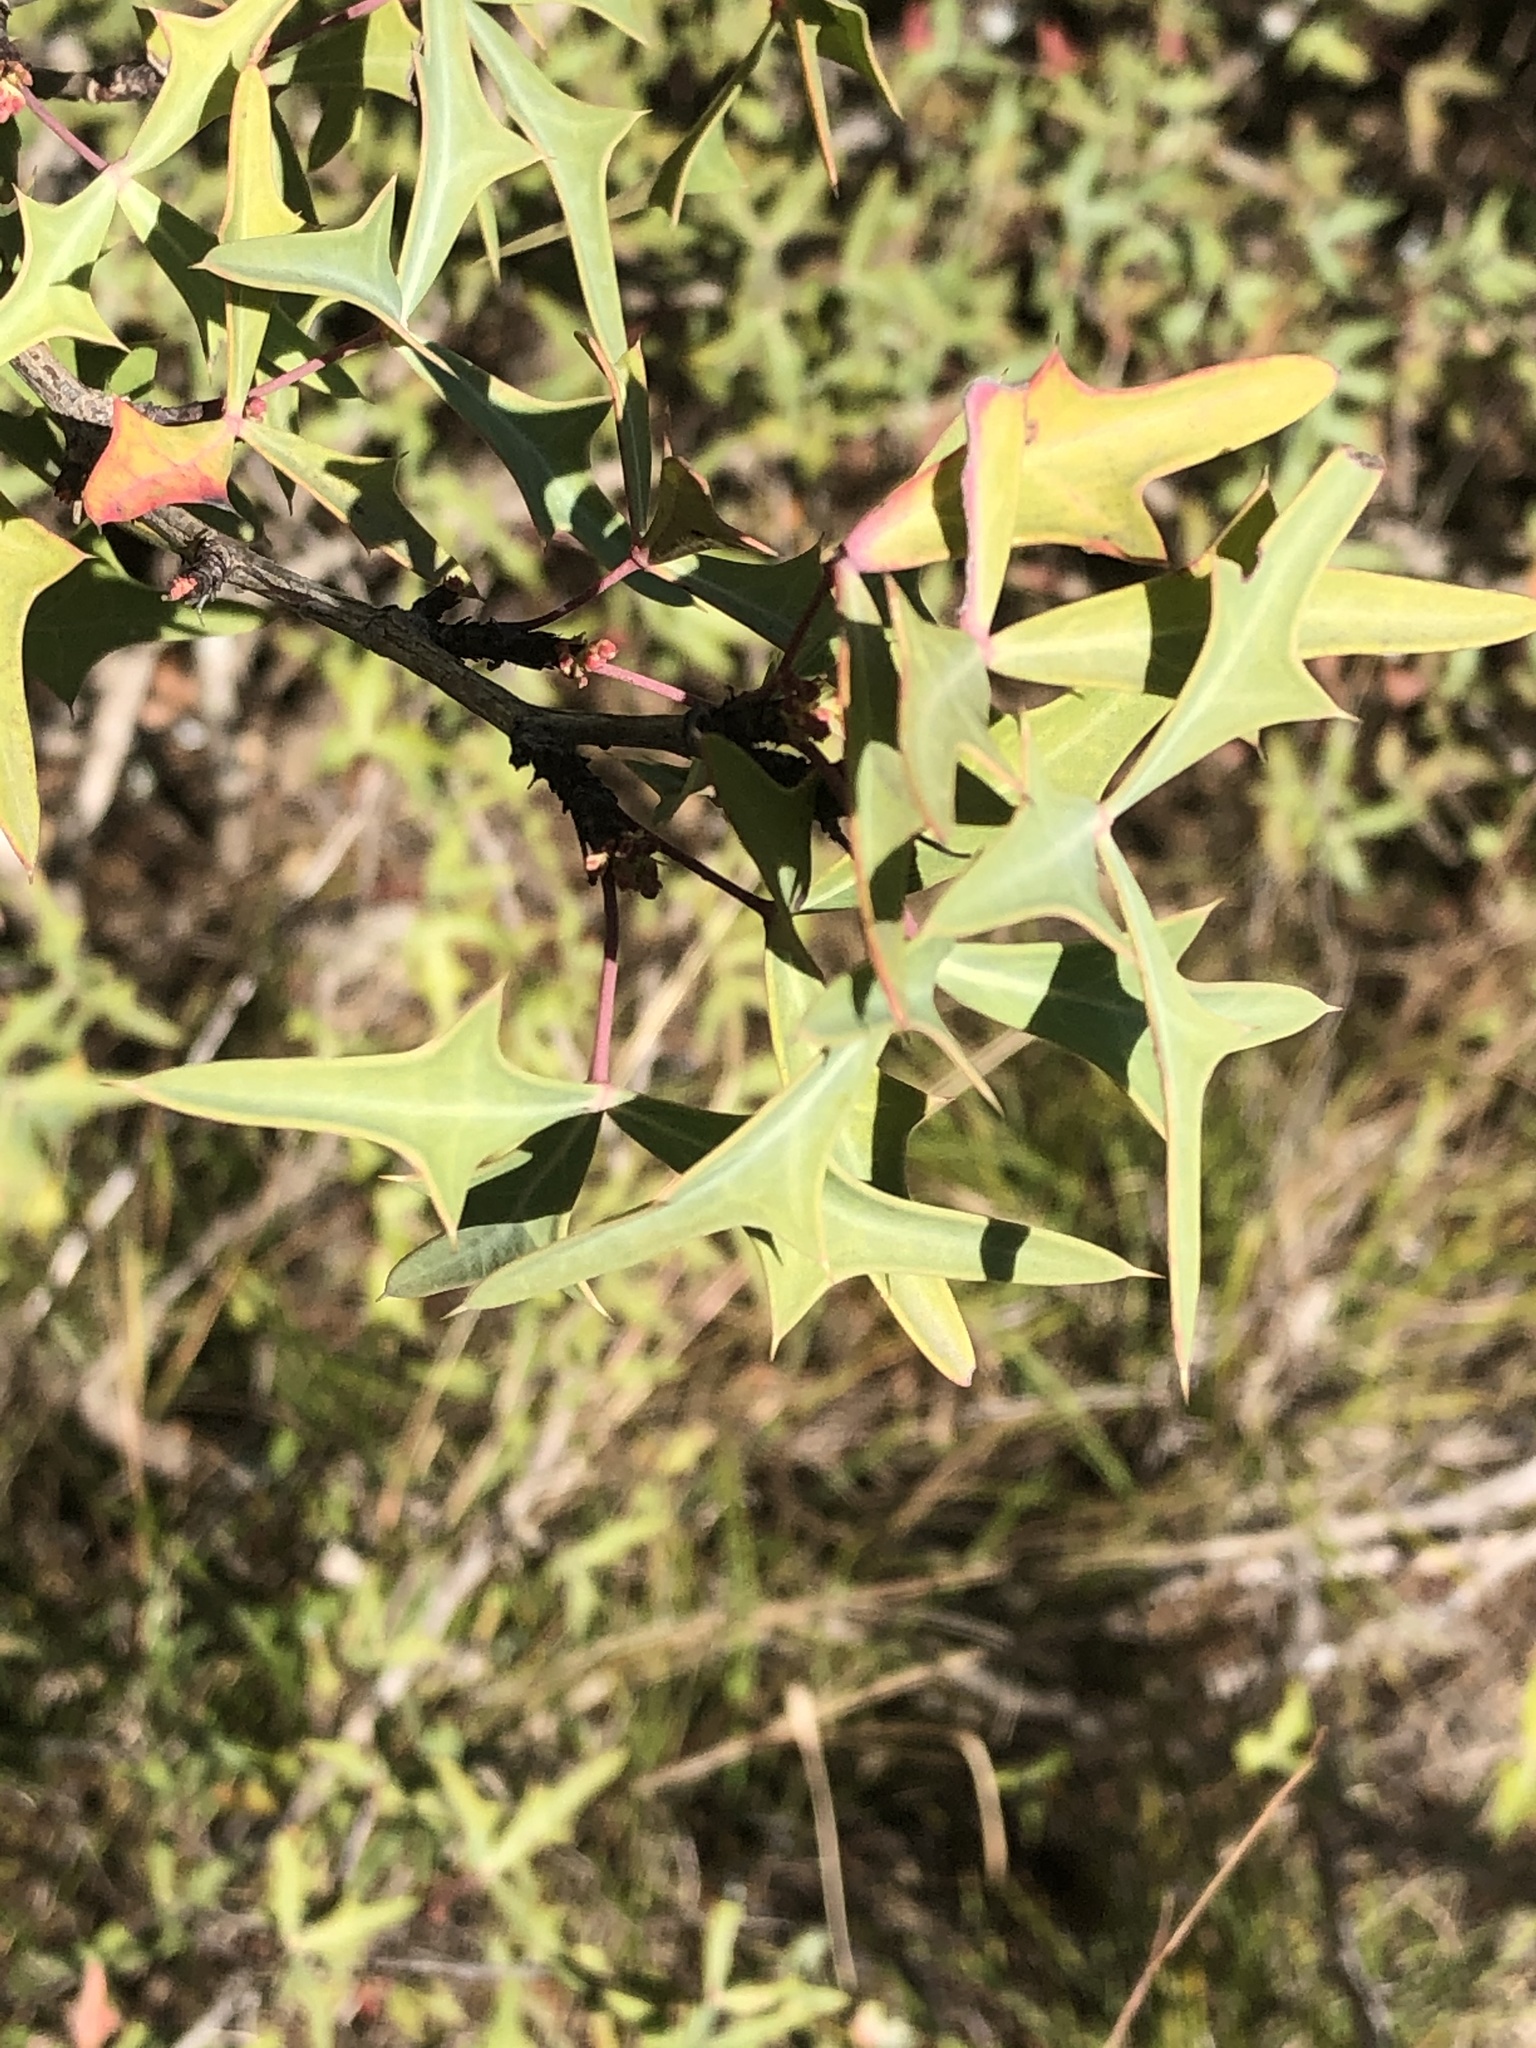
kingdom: Plantae
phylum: Tracheophyta
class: Magnoliopsida
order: Ranunculales
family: Berberidaceae
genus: Alloberberis
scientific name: Alloberberis trifoliolata
